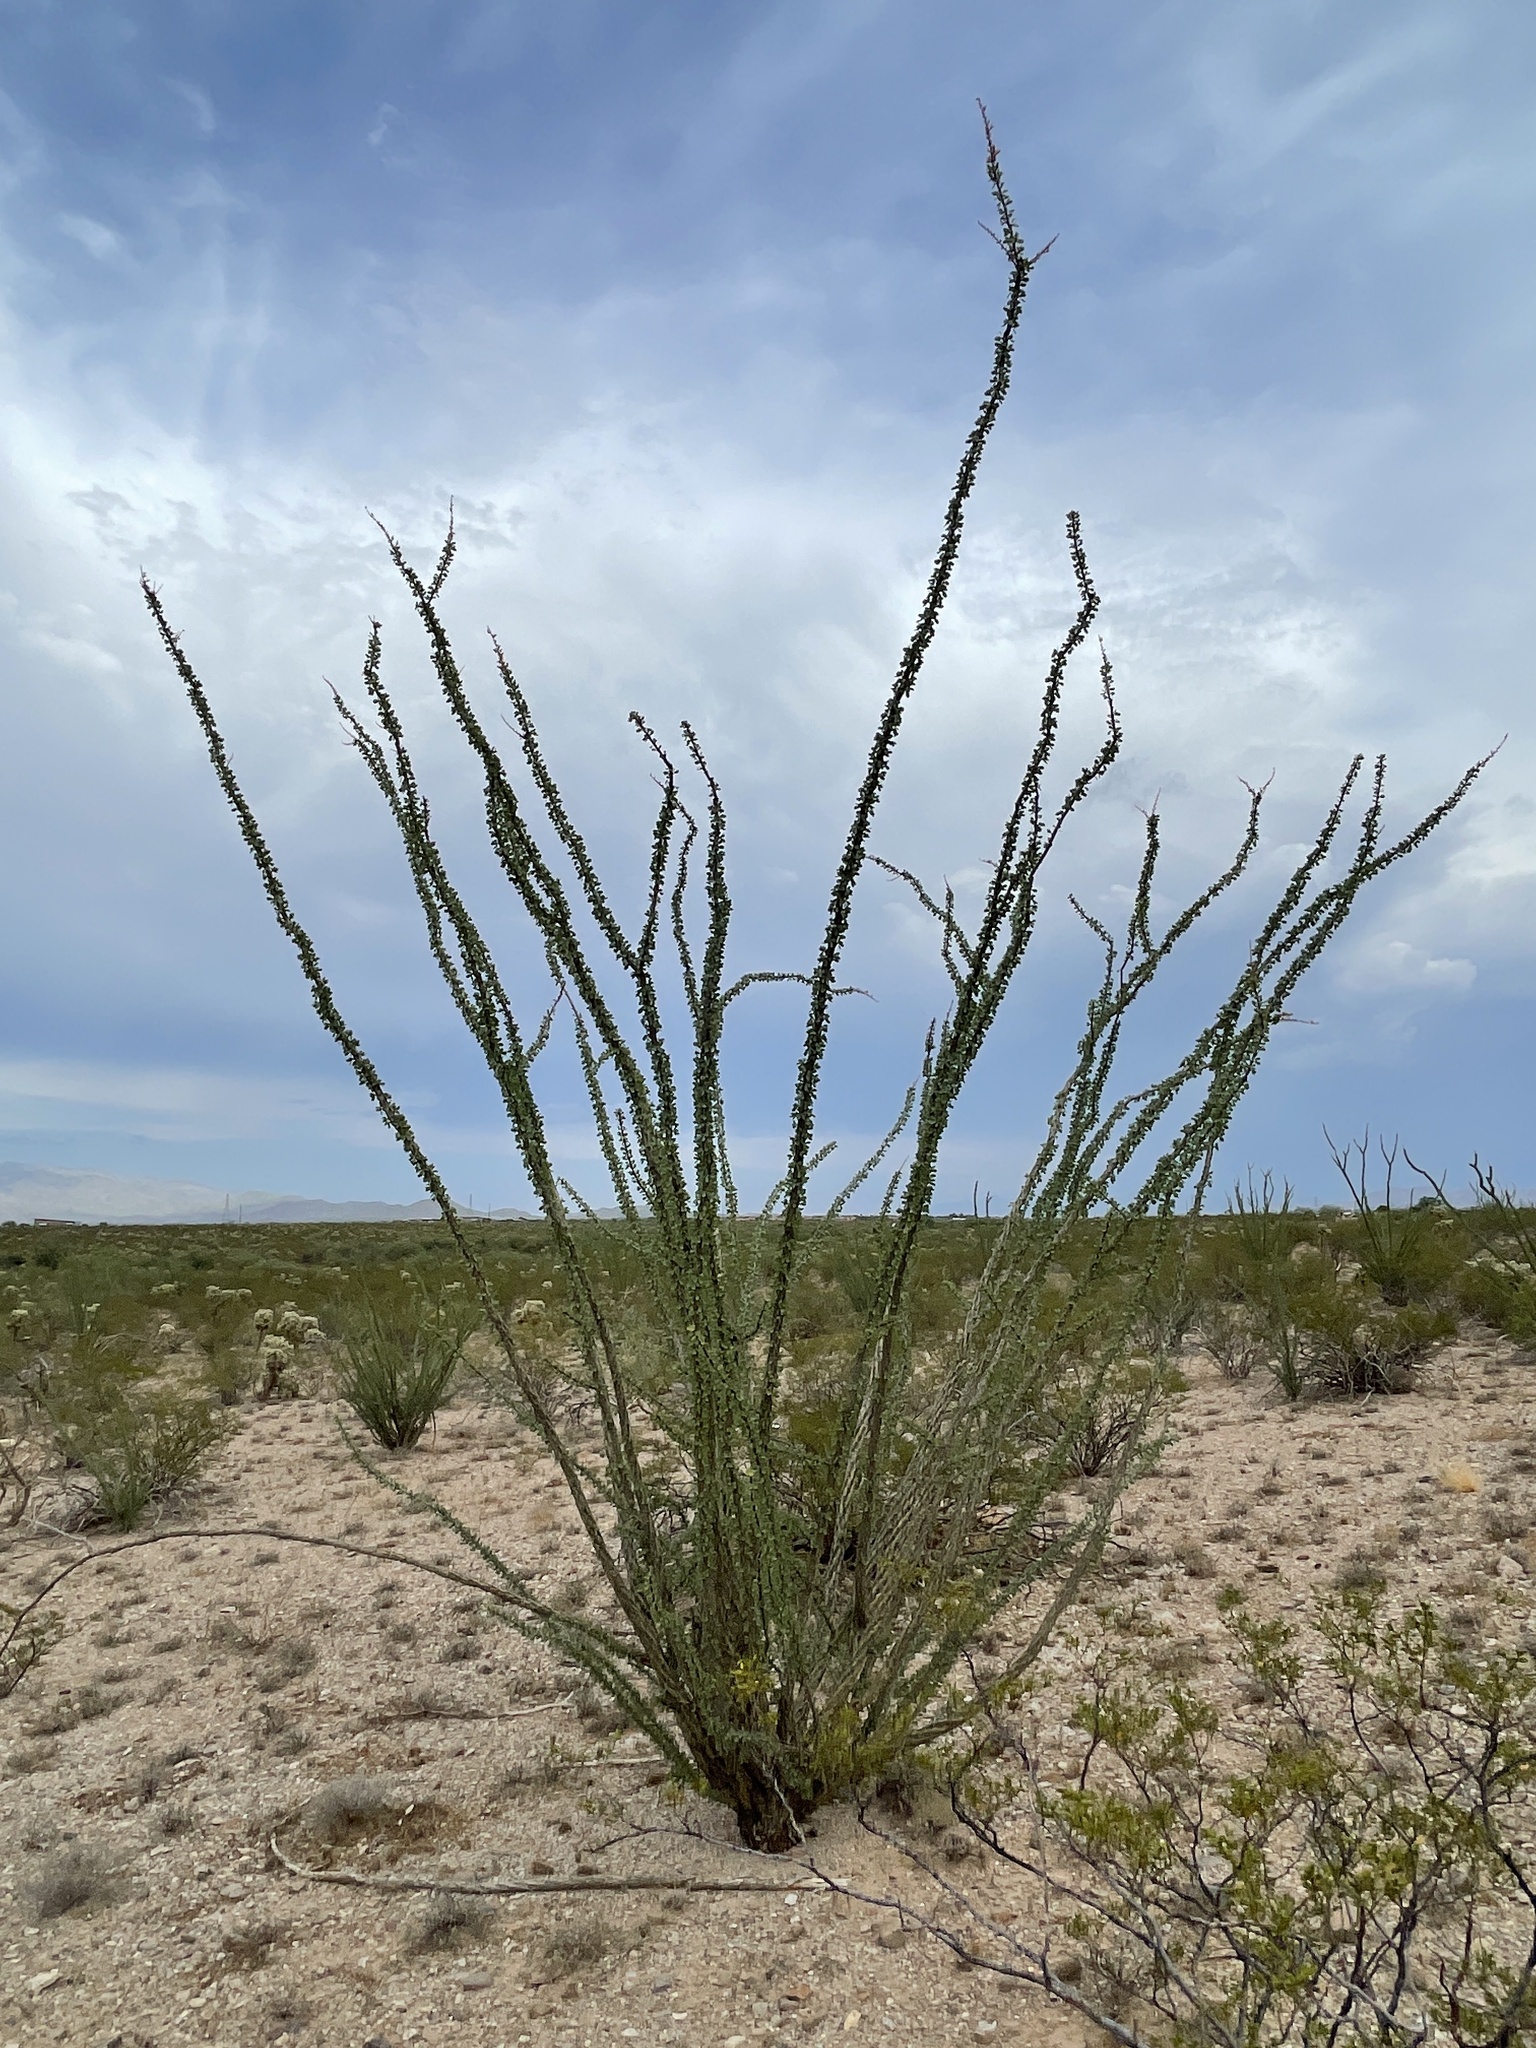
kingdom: Plantae
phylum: Tracheophyta
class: Magnoliopsida
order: Ericales
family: Fouquieriaceae
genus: Fouquieria
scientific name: Fouquieria splendens
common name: Vine-cactus
